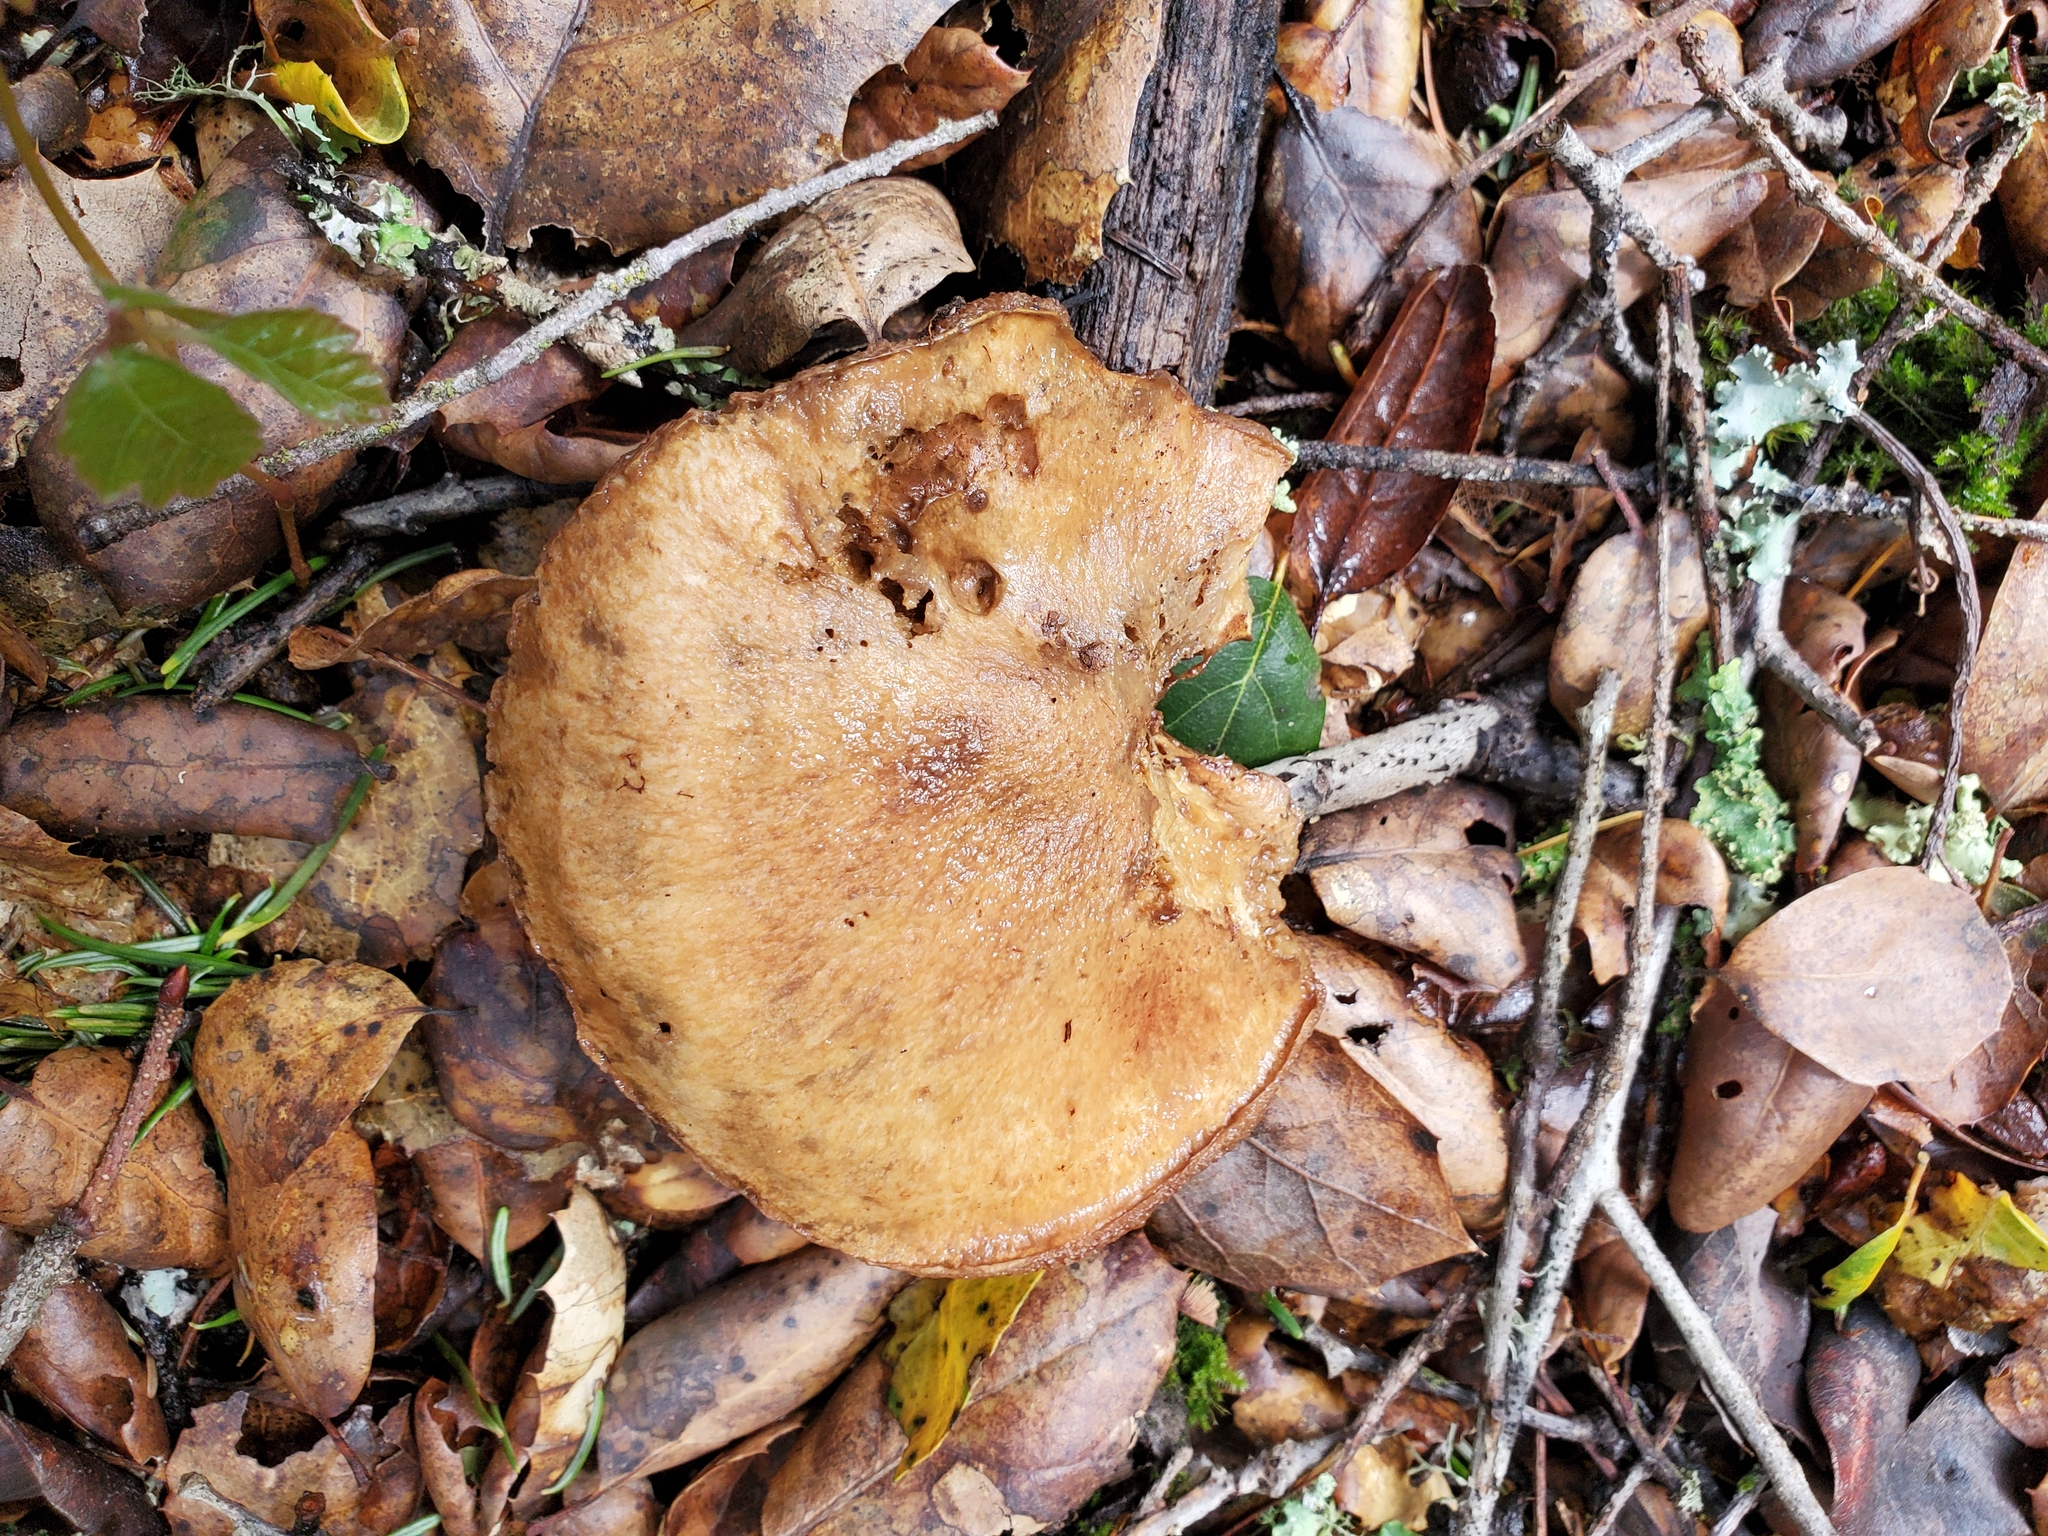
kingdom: Fungi
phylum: Basidiomycota
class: Agaricomycetes
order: Boletales
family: Suillaceae
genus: Suillus
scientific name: Suillus caerulescens
